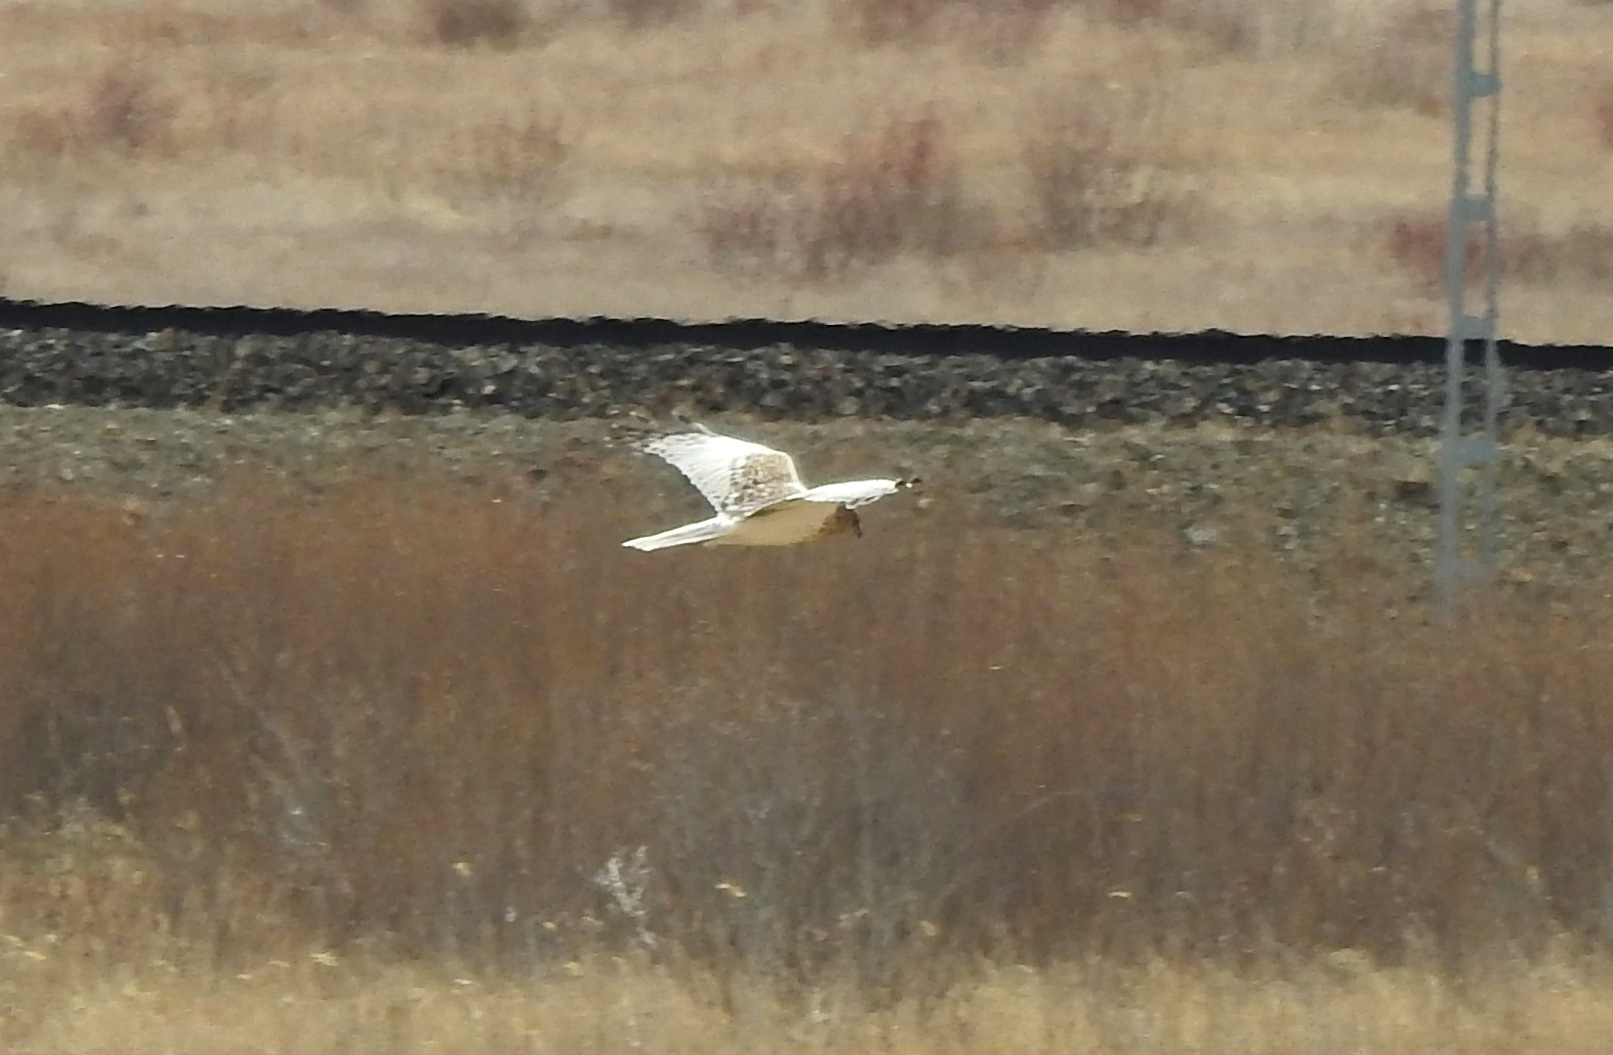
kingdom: Animalia
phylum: Chordata
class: Aves
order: Accipitriformes
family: Accipitridae
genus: Circus
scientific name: Circus spilonotus
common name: Eastern marsh-harrier
